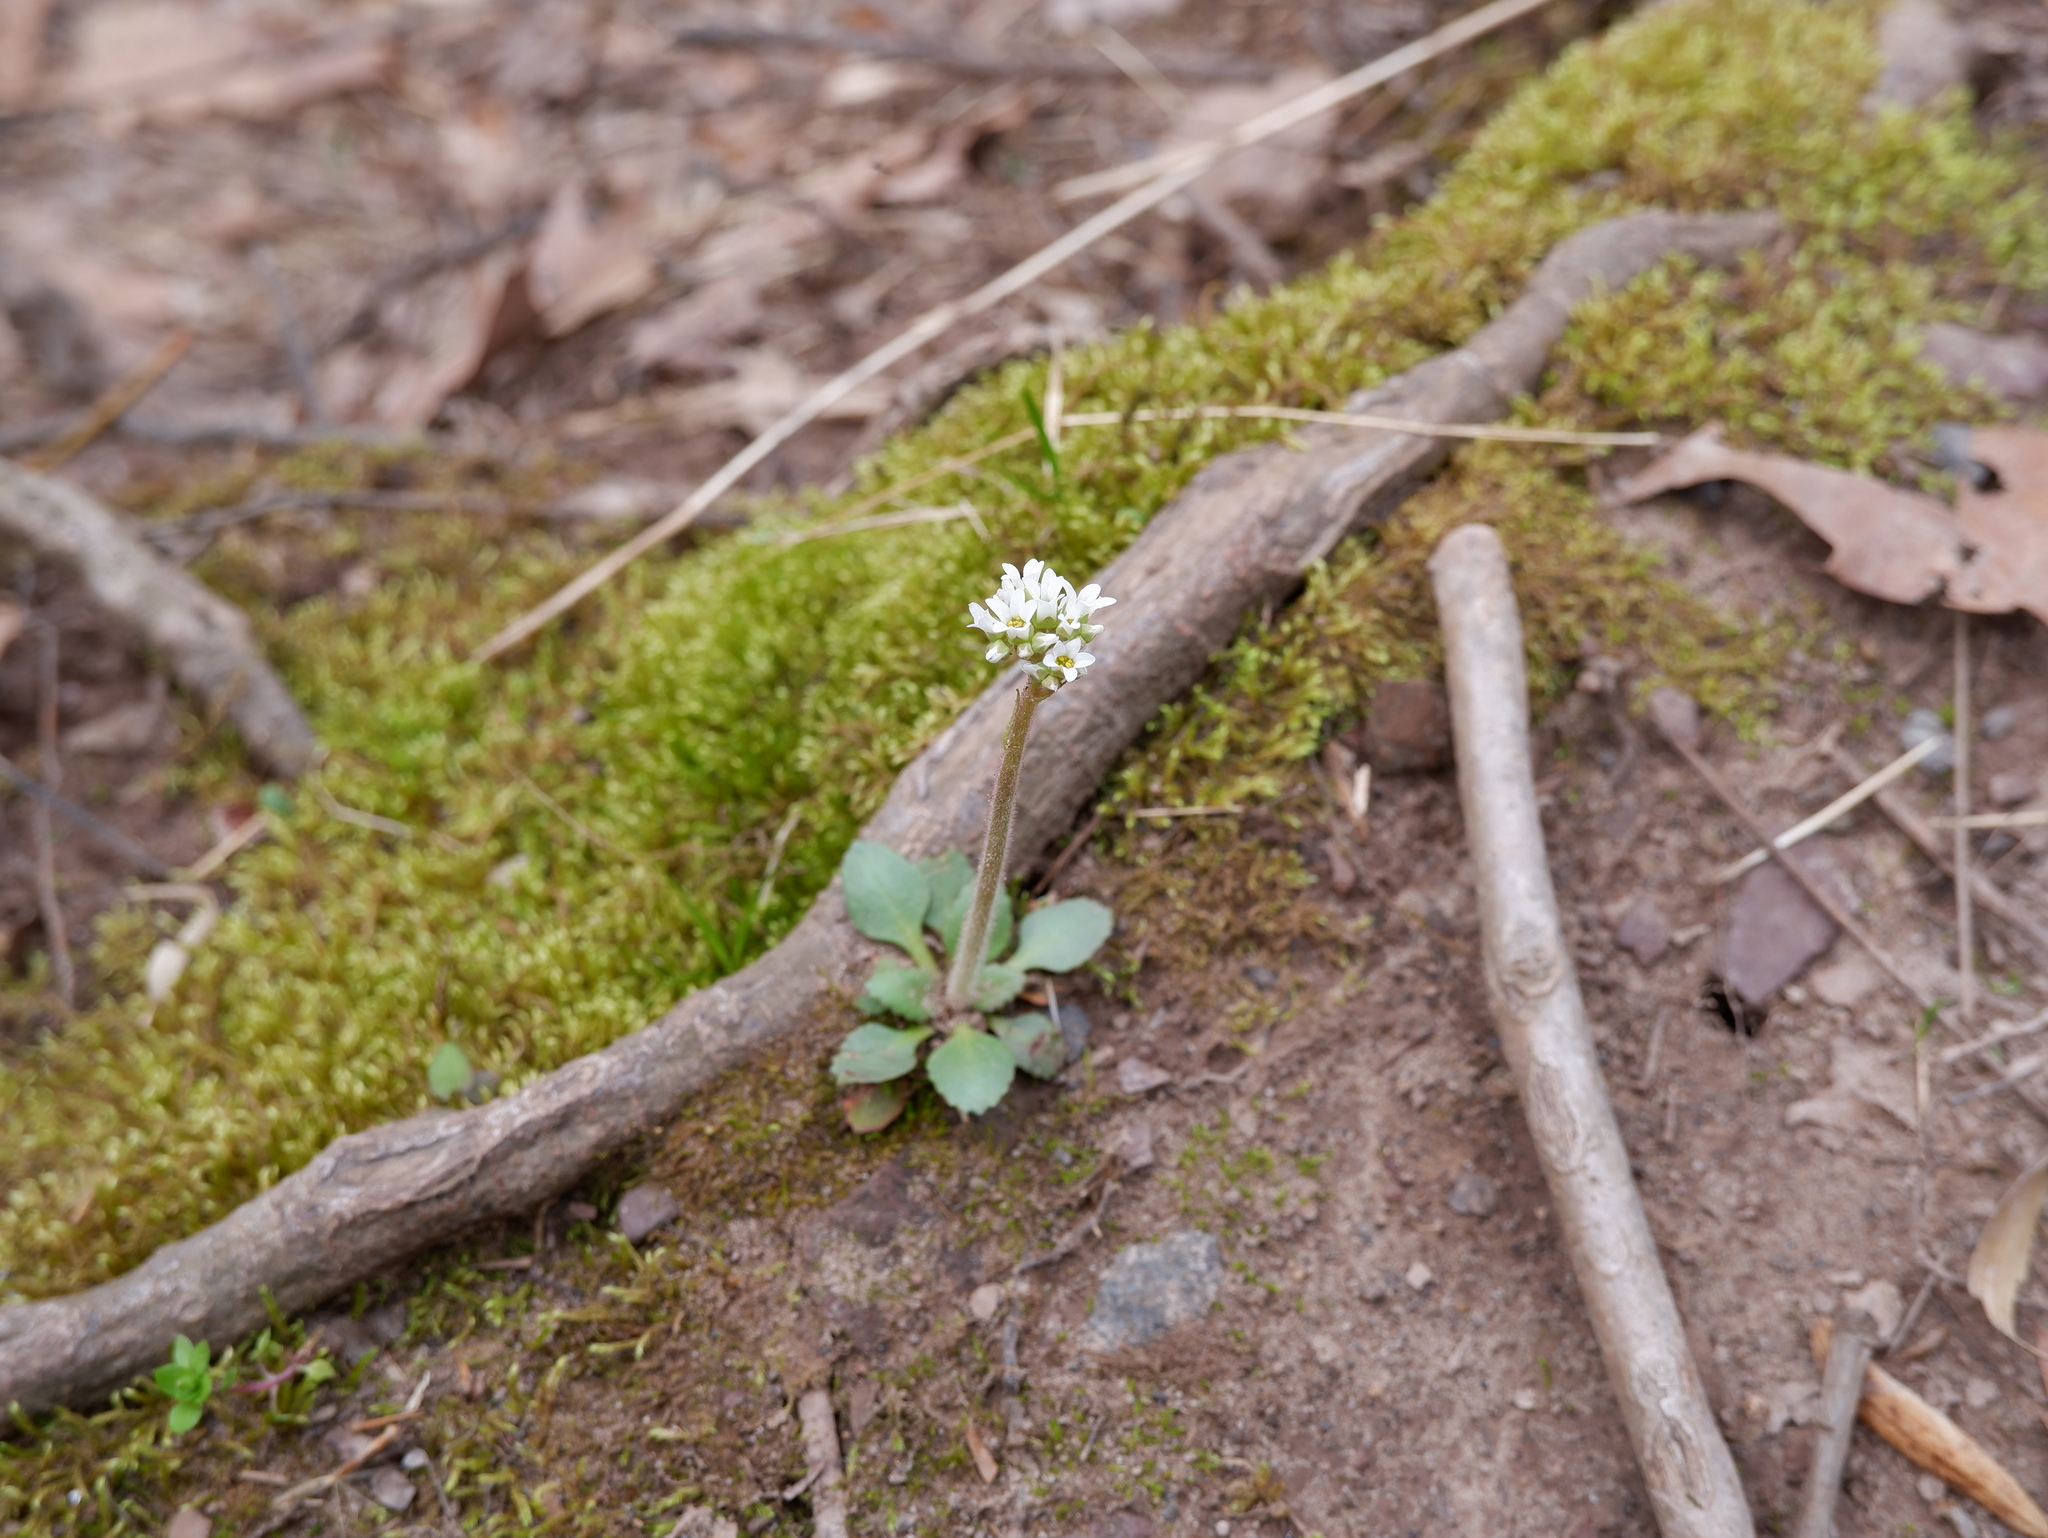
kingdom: Plantae
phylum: Tracheophyta
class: Magnoliopsida
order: Saxifragales
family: Saxifragaceae
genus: Micranthes
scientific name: Micranthes virginiensis
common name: Early saxifrage
